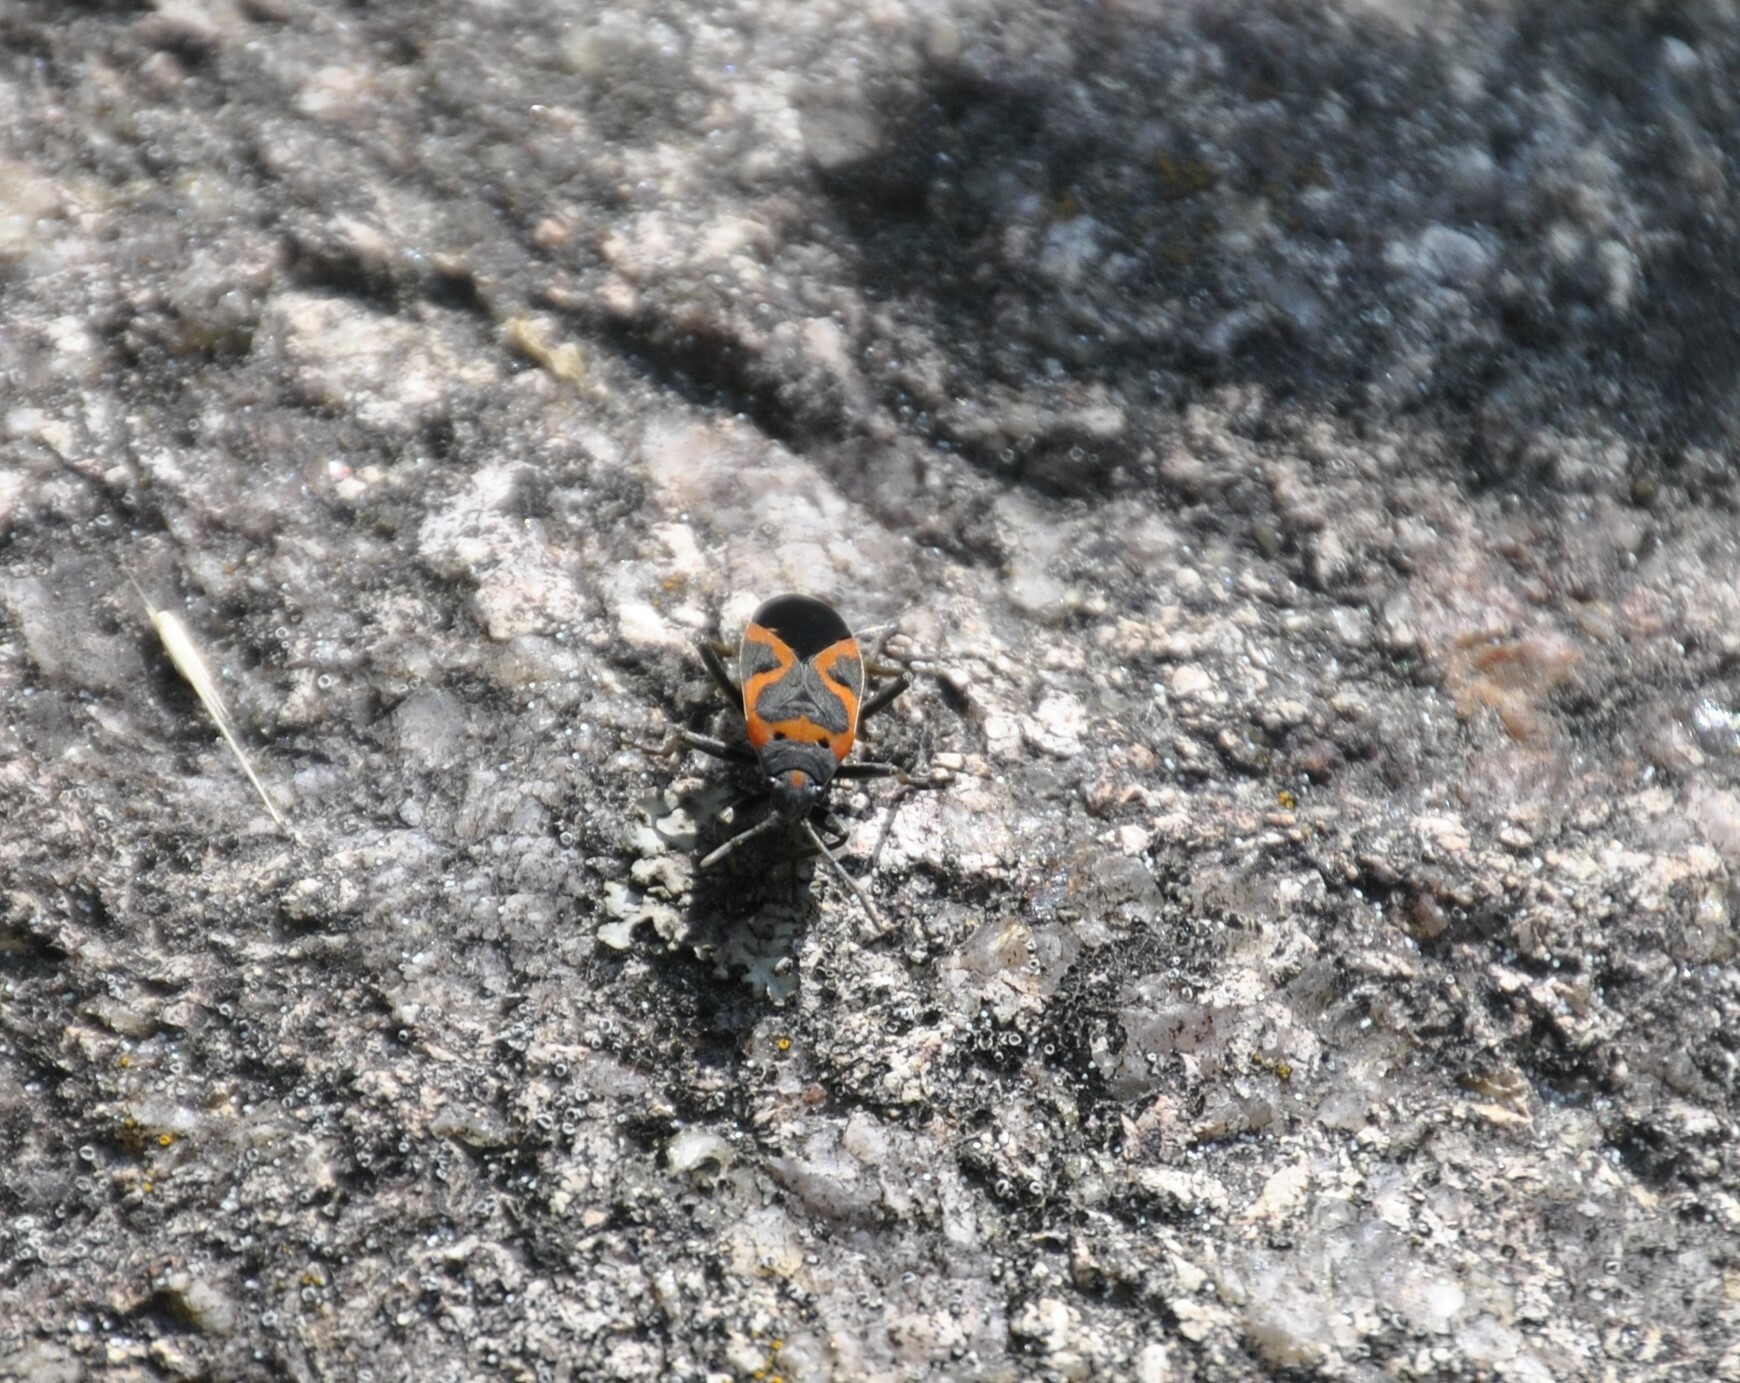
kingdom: Animalia
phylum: Arthropoda
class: Insecta
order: Hemiptera
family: Lygaeidae
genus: Lygaeus
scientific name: Lygaeus kalmii
